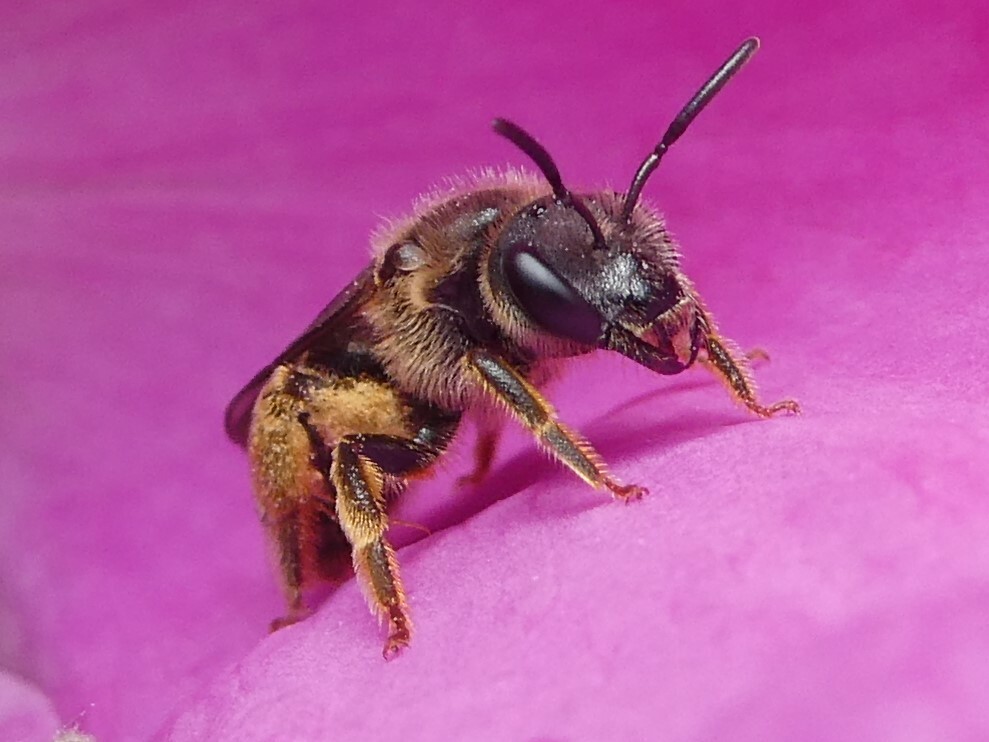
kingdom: Animalia
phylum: Arthropoda
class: Insecta
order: Hymenoptera
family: Halictidae
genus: Halictus
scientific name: Halictus rubicundus
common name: Orange-legged furrow bee
